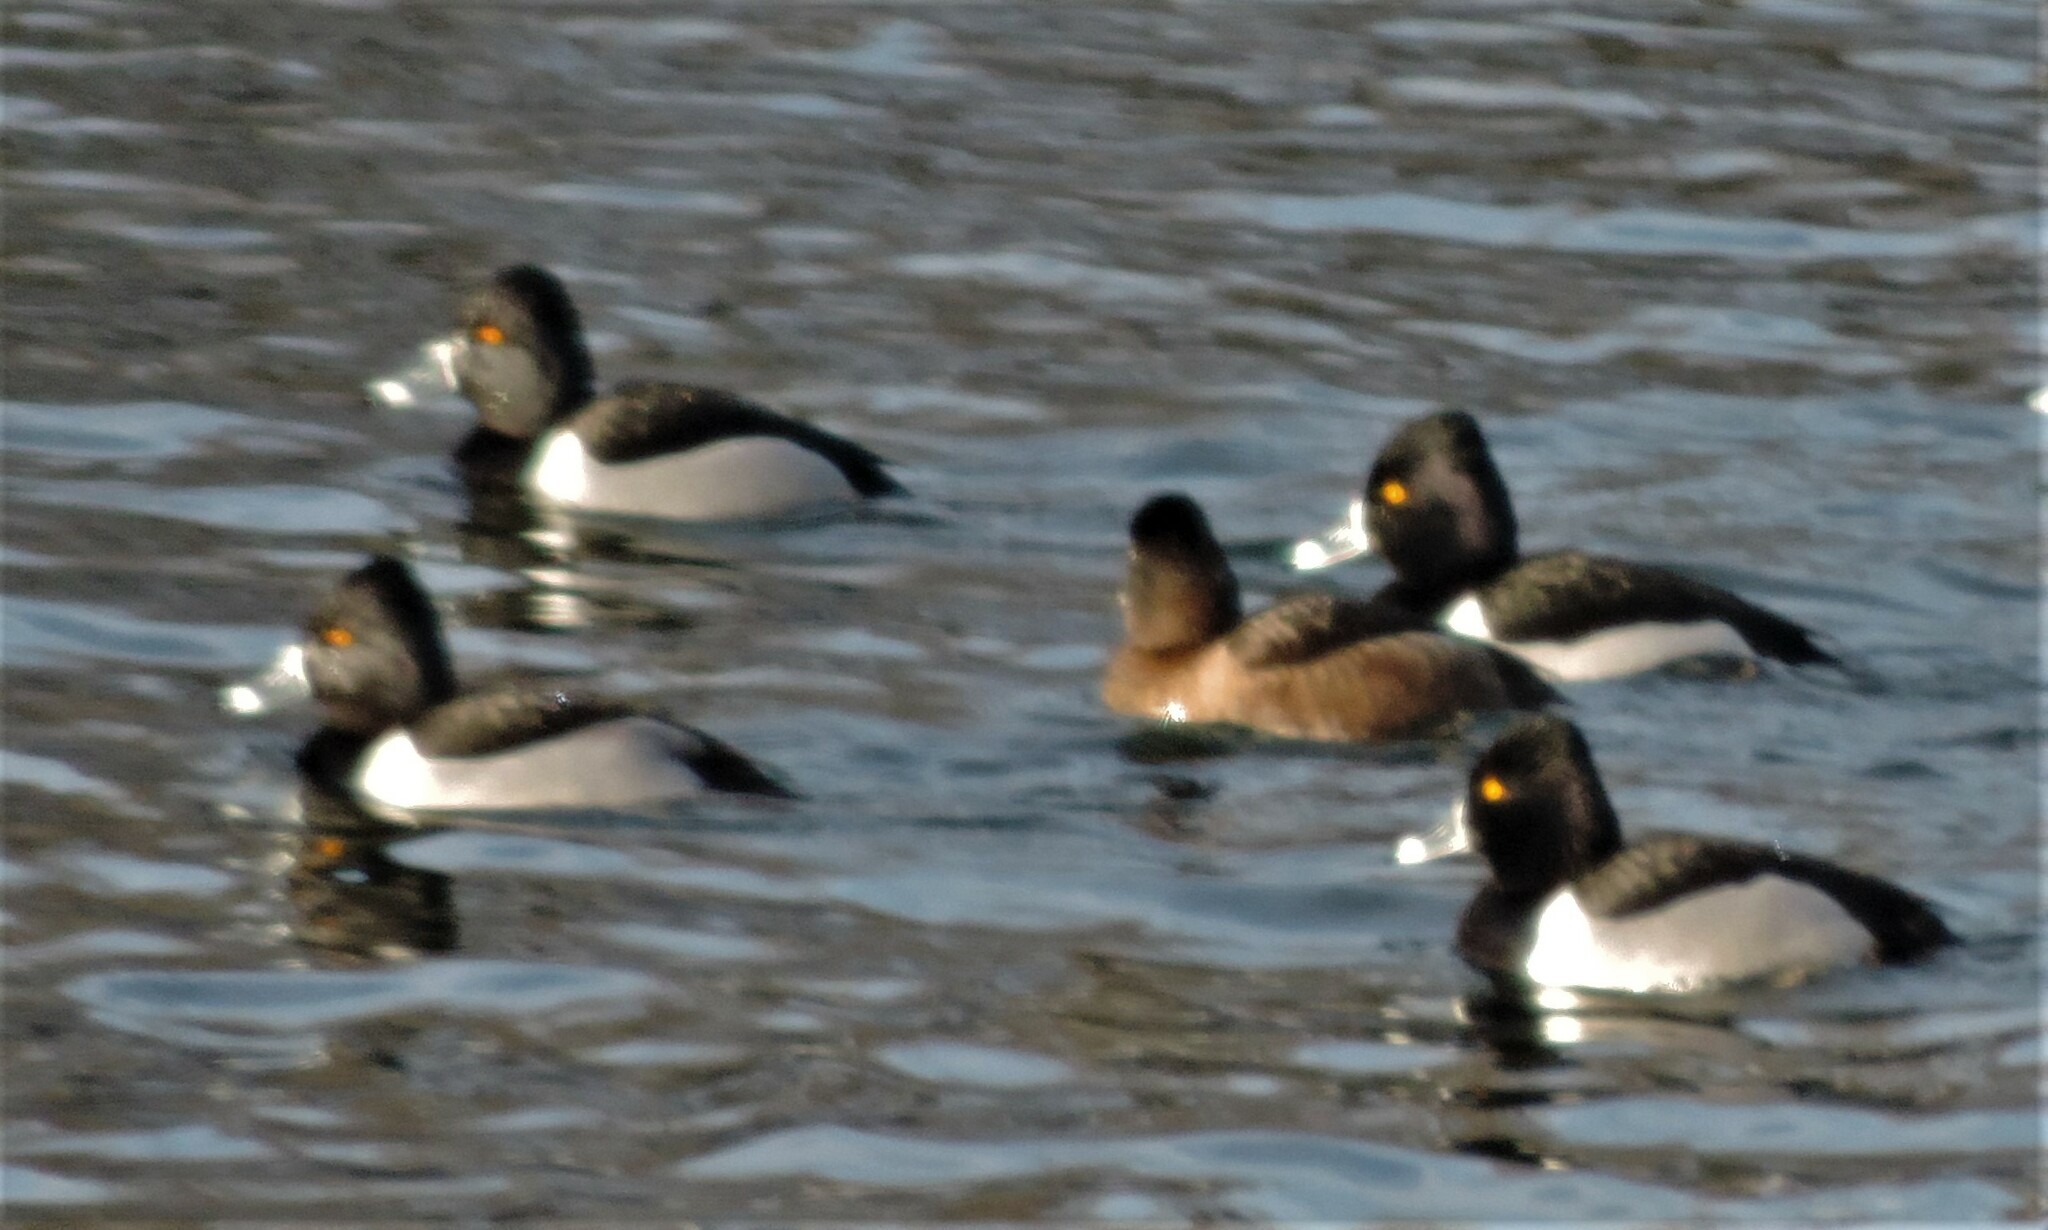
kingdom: Animalia
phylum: Chordata
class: Aves
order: Anseriformes
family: Anatidae
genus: Aythya
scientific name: Aythya collaris
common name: Ring-necked duck
